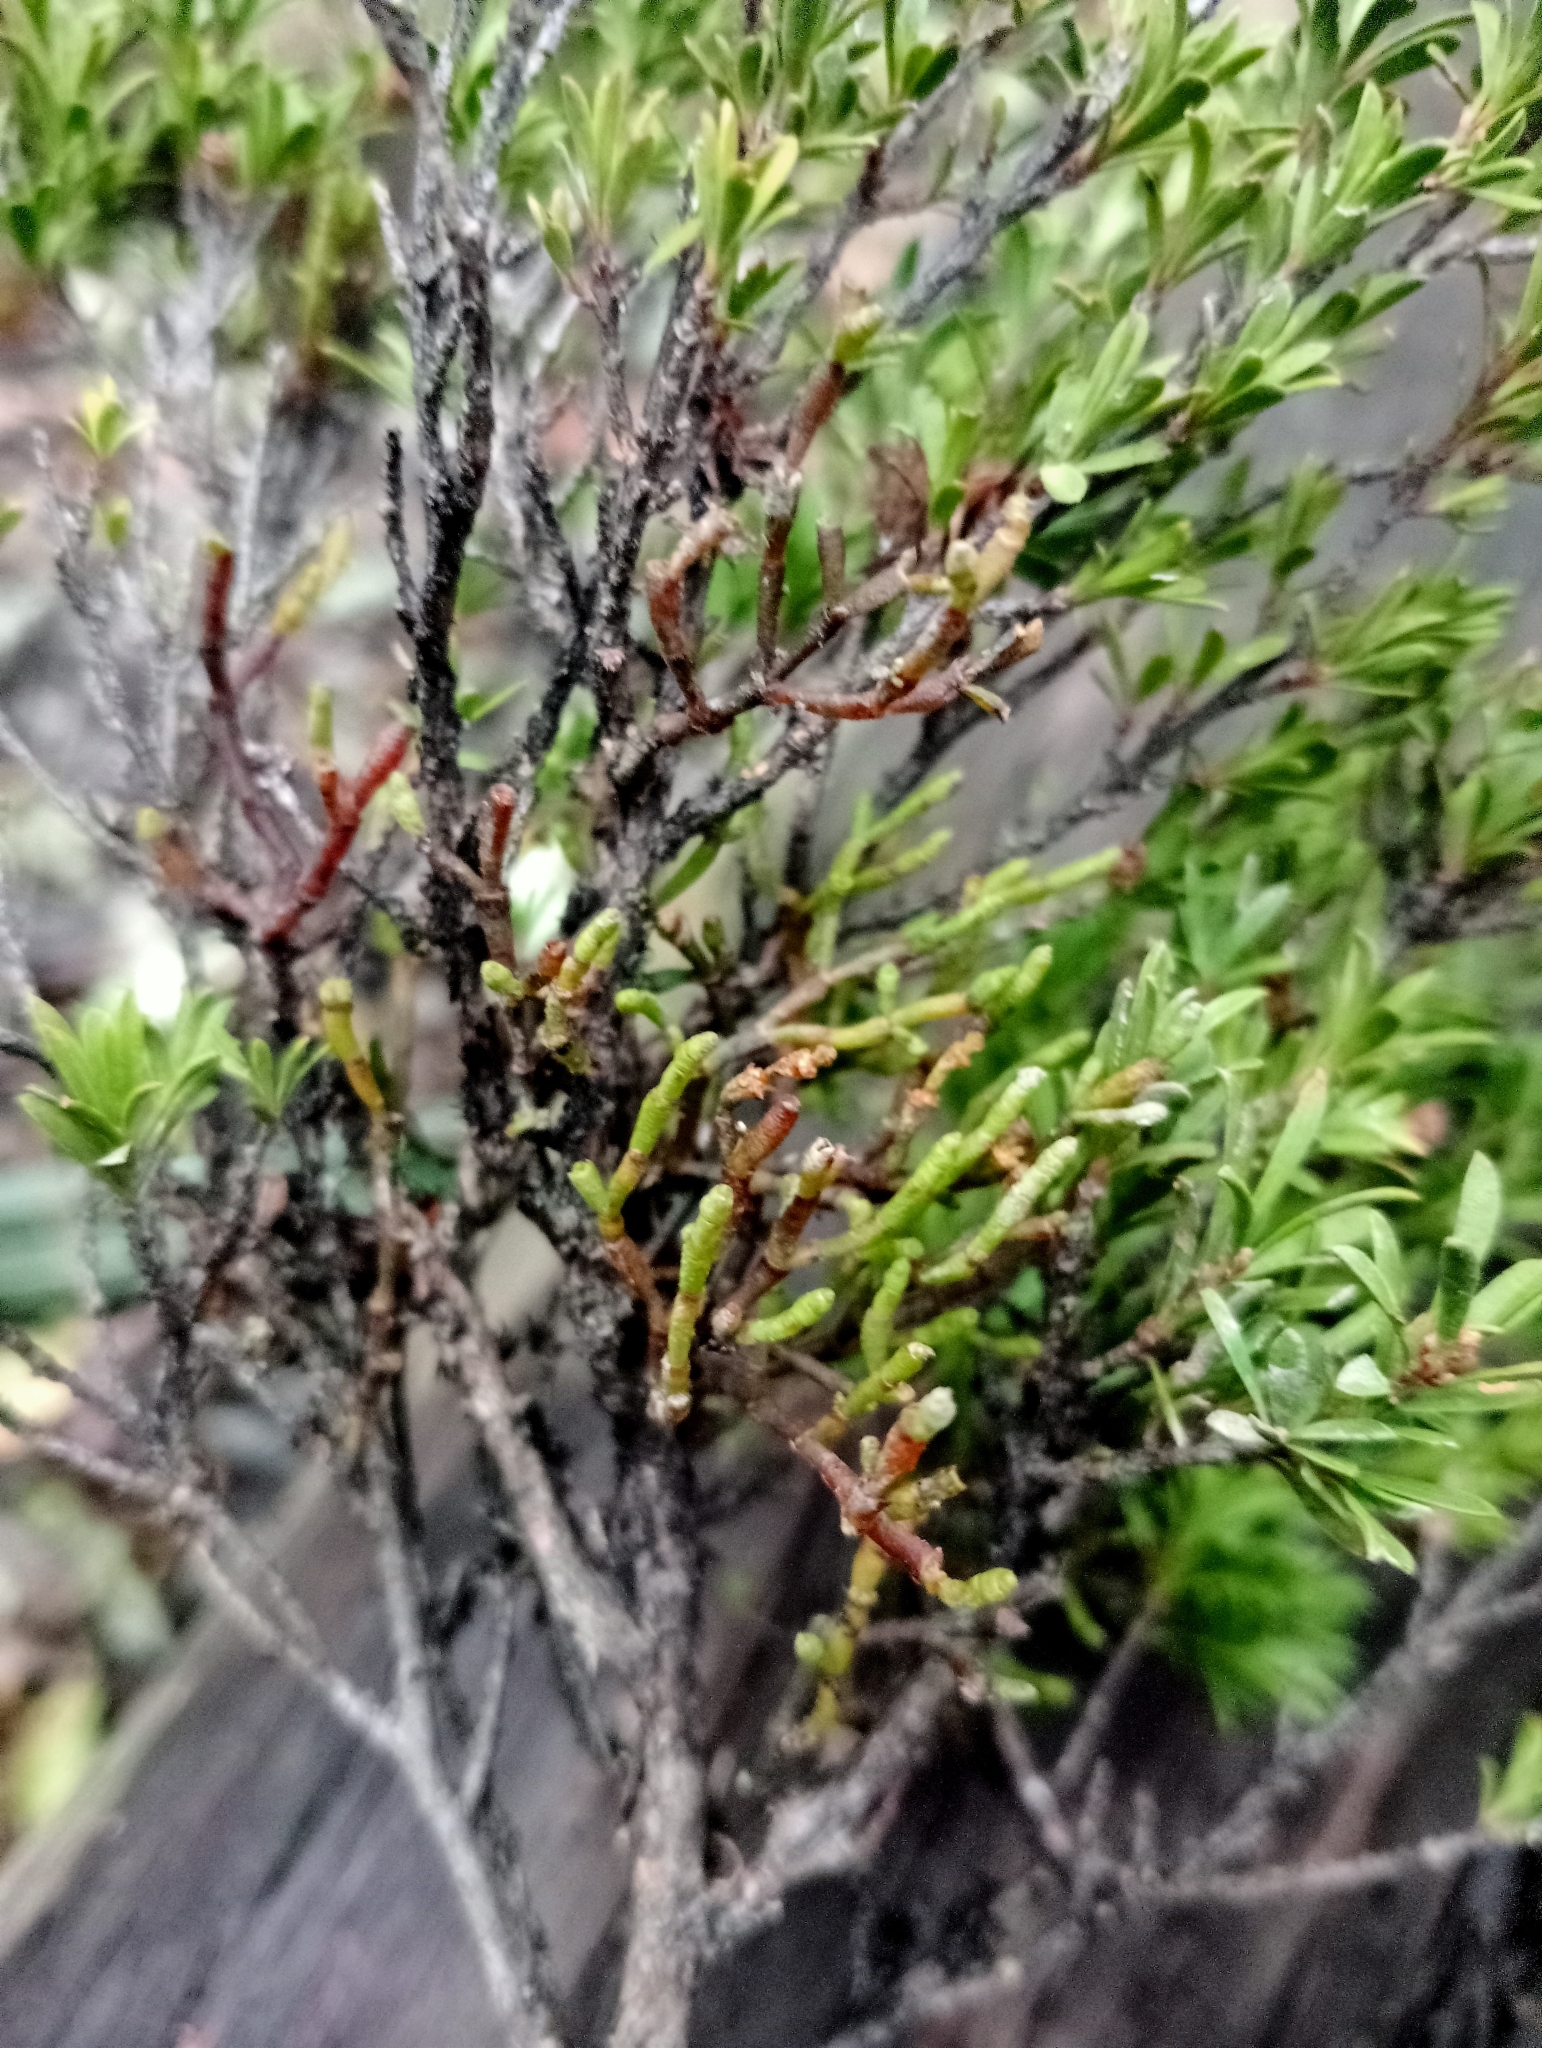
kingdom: Plantae
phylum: Tracheophyta
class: Magnoliopsida
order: Santalales
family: Viscaceae
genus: Korthalsella
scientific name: Korthalsella salicornioides
